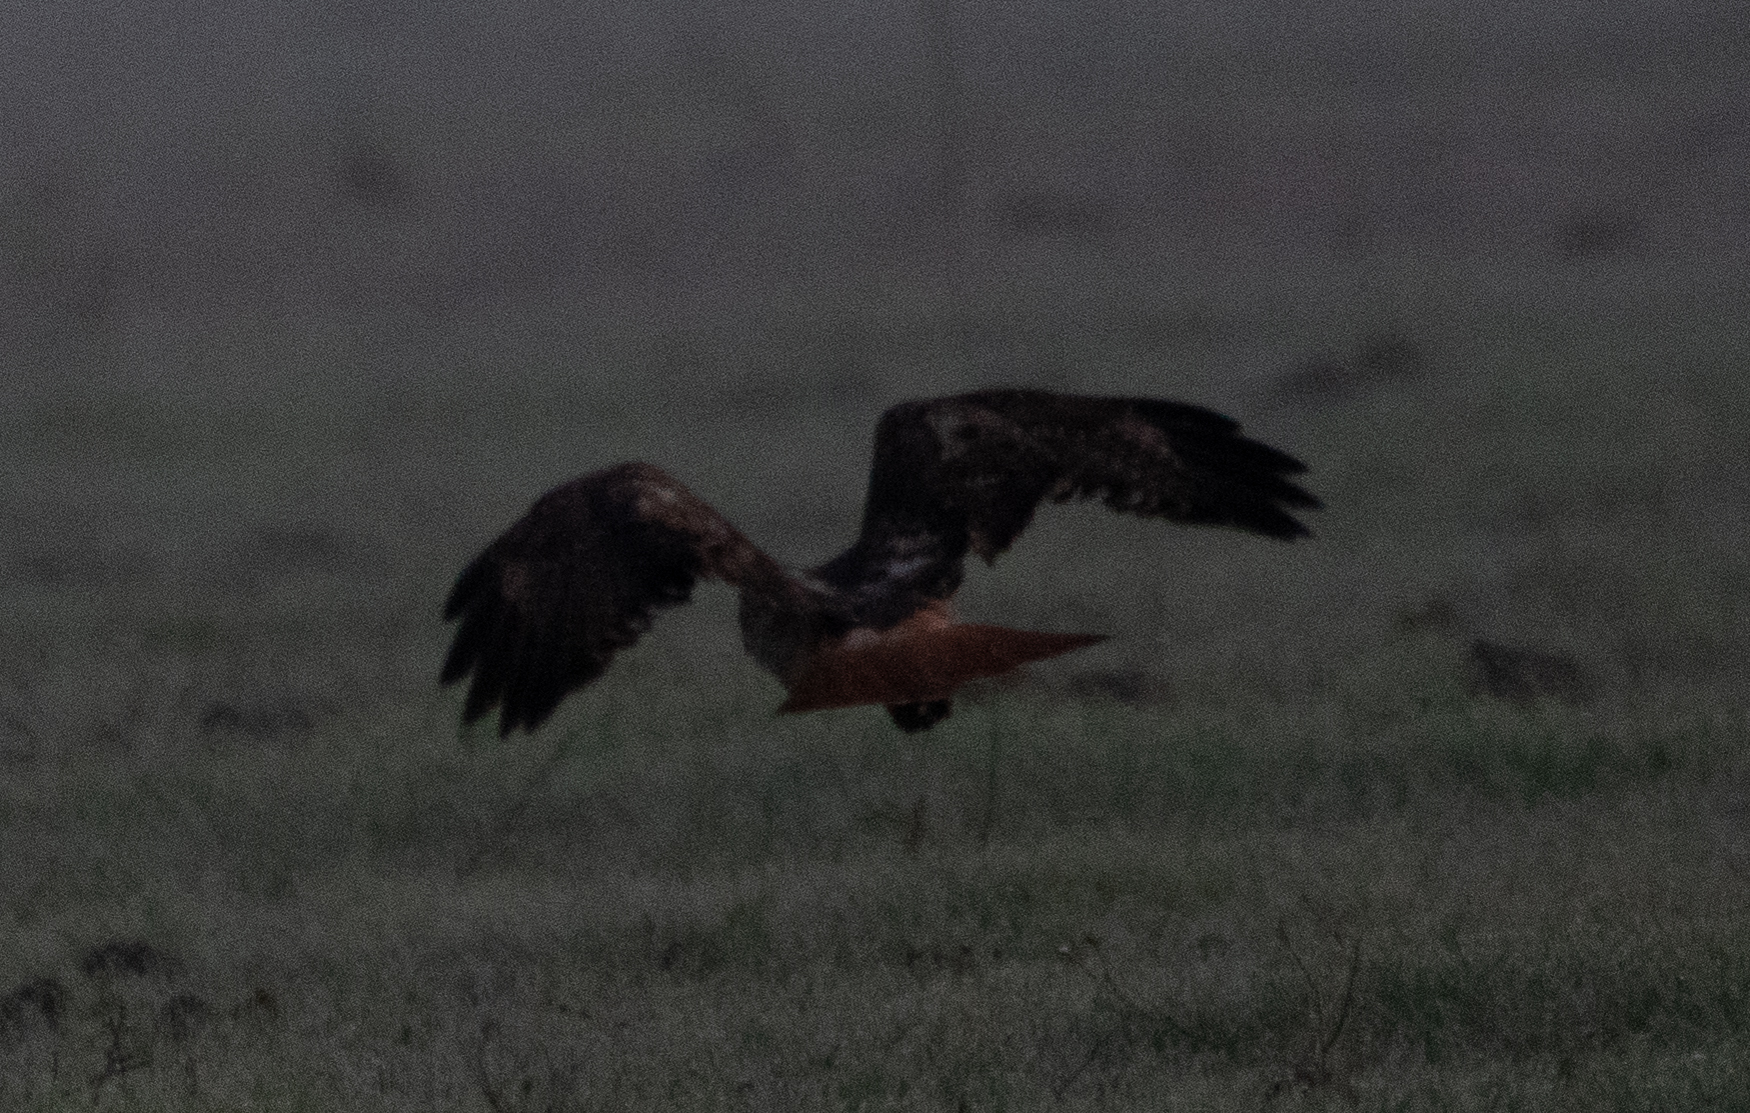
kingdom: Animalia
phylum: Chordata
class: Aves
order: Accipitriformes
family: Accipitridae
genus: Buteo
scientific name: Buteo jamaicensis
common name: Red-tailed hawk
